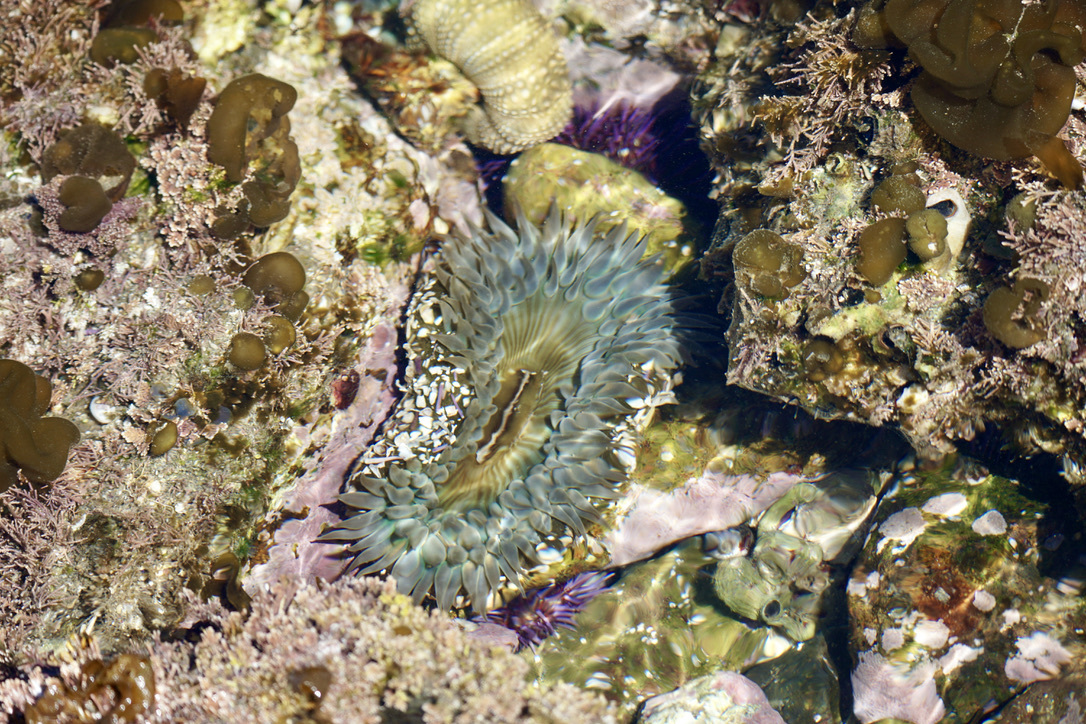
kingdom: Animalia
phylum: Cnidaria
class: Anthozoa
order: Actiniaria
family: Actiniidae
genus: Anthopleura
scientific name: Anthopleura sola
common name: Sun anemone
